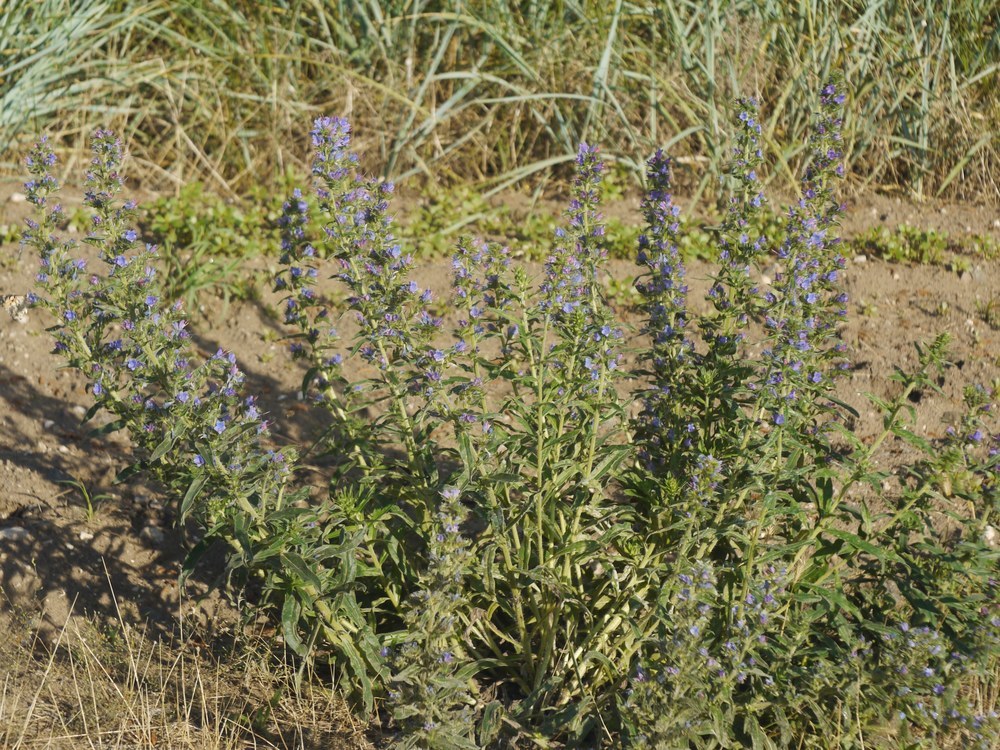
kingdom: Plantae
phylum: Tracheophyta
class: Magnoliopsida
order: Boraginales
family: Boraginaceae
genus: Echium
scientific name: Echium vulgare
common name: Common viper's bugloss
